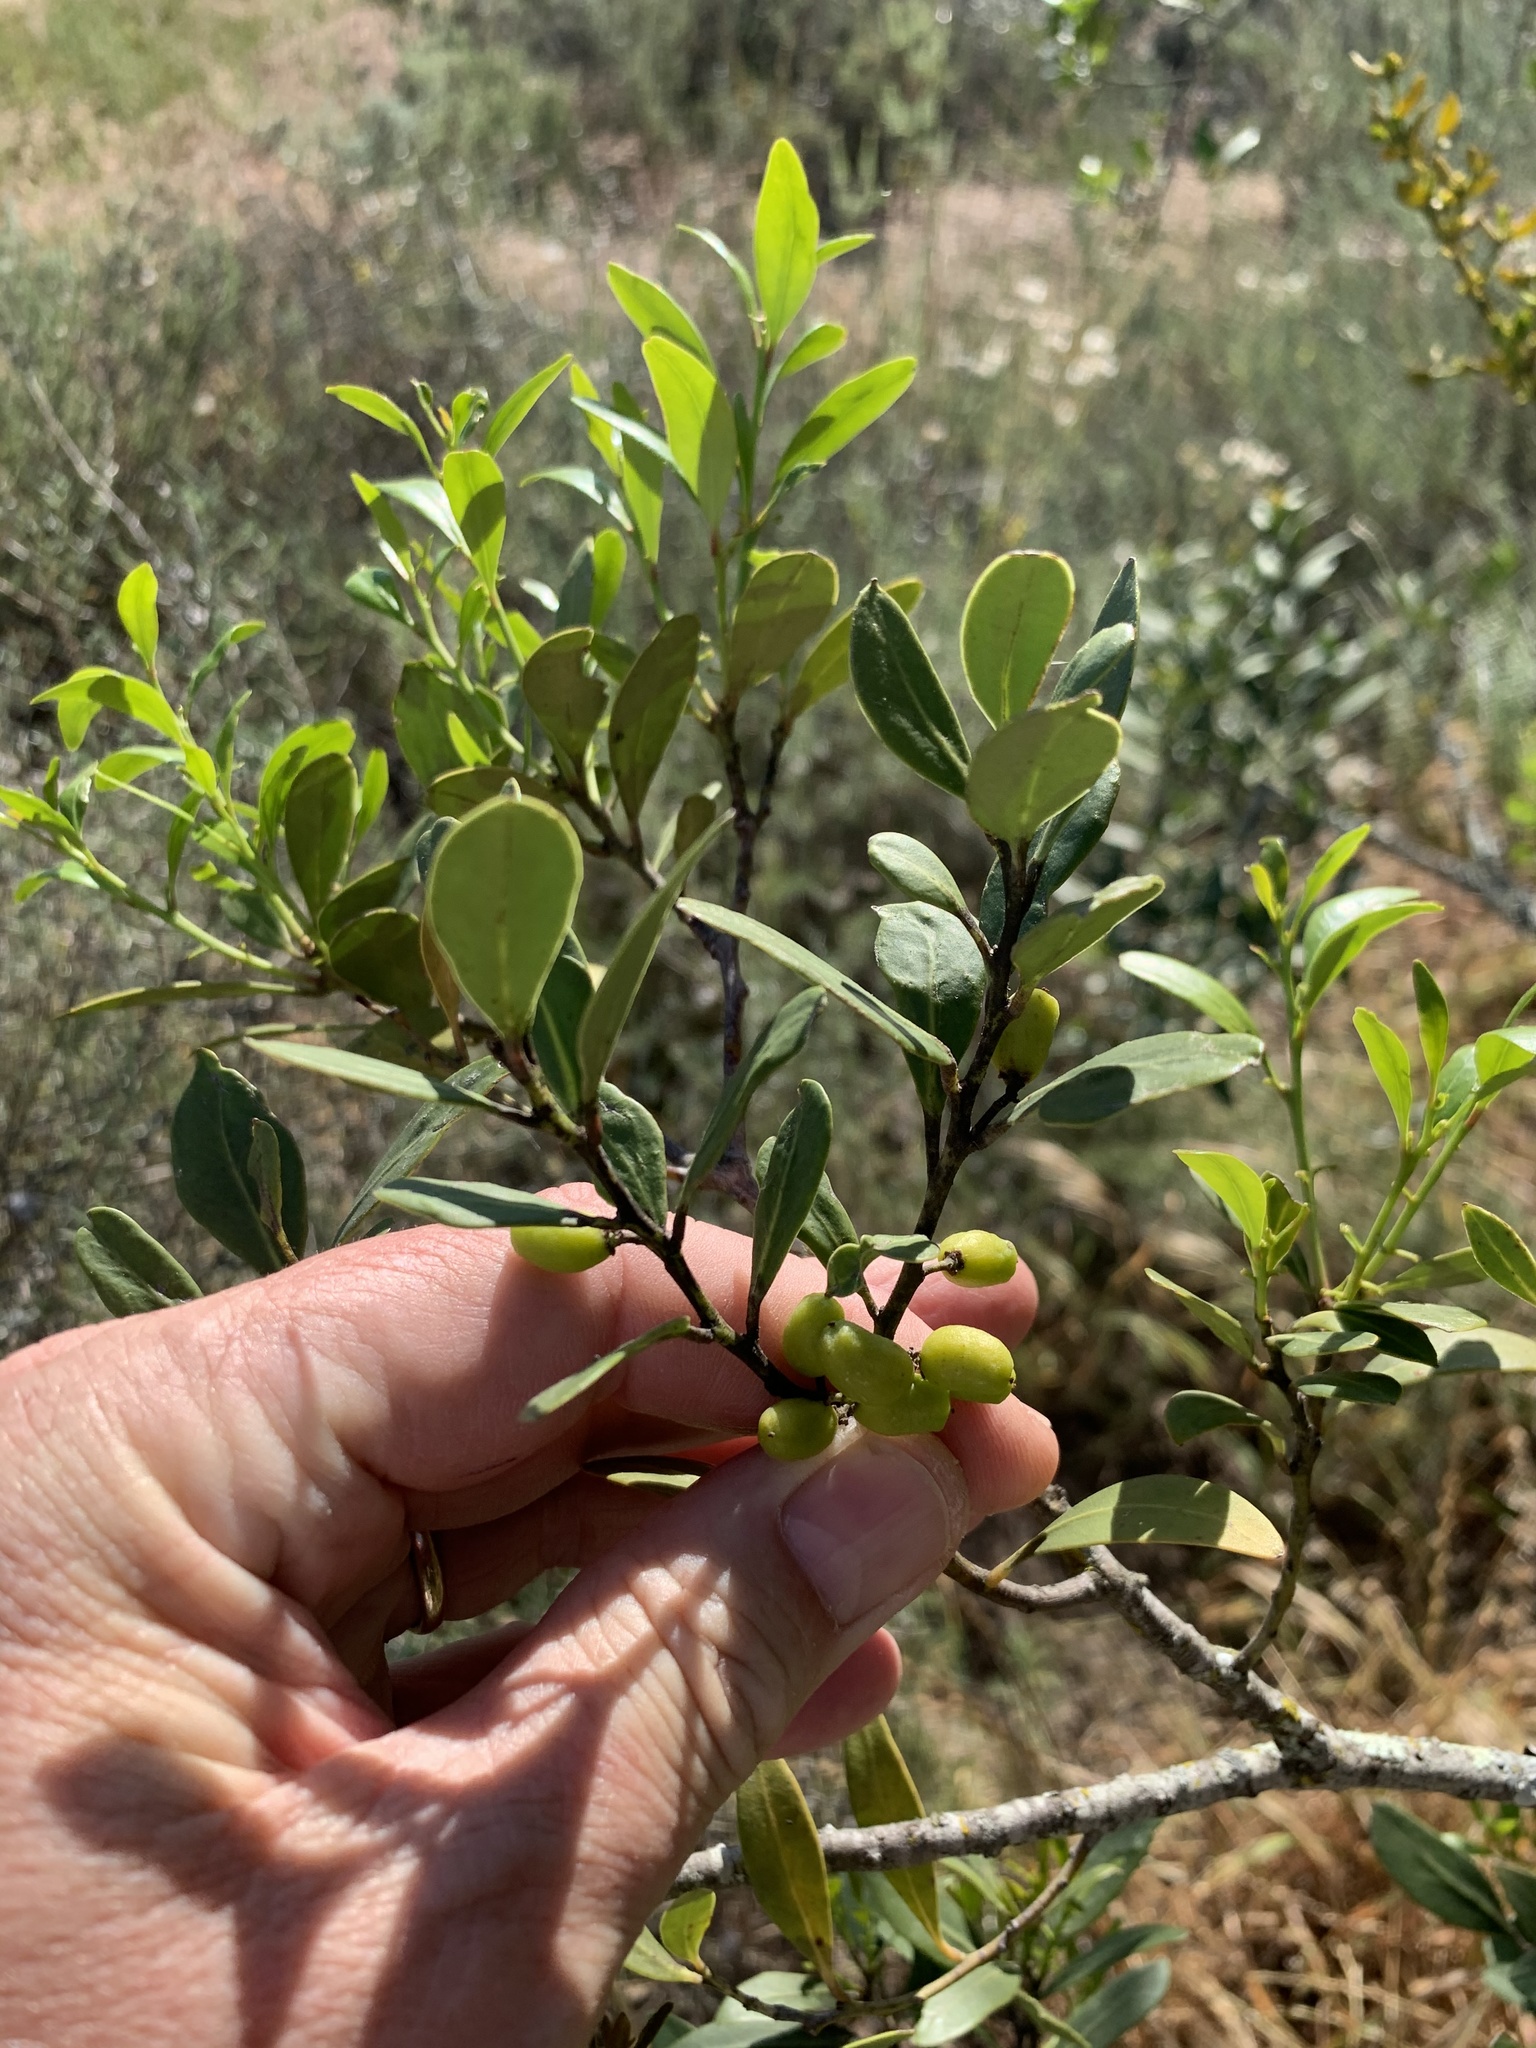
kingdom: Plantae
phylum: Tracheophyta
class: Magnoliopsida
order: Celastrales
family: Celastraceae
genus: Gymnosporia
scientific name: Gymnosporia laurina
